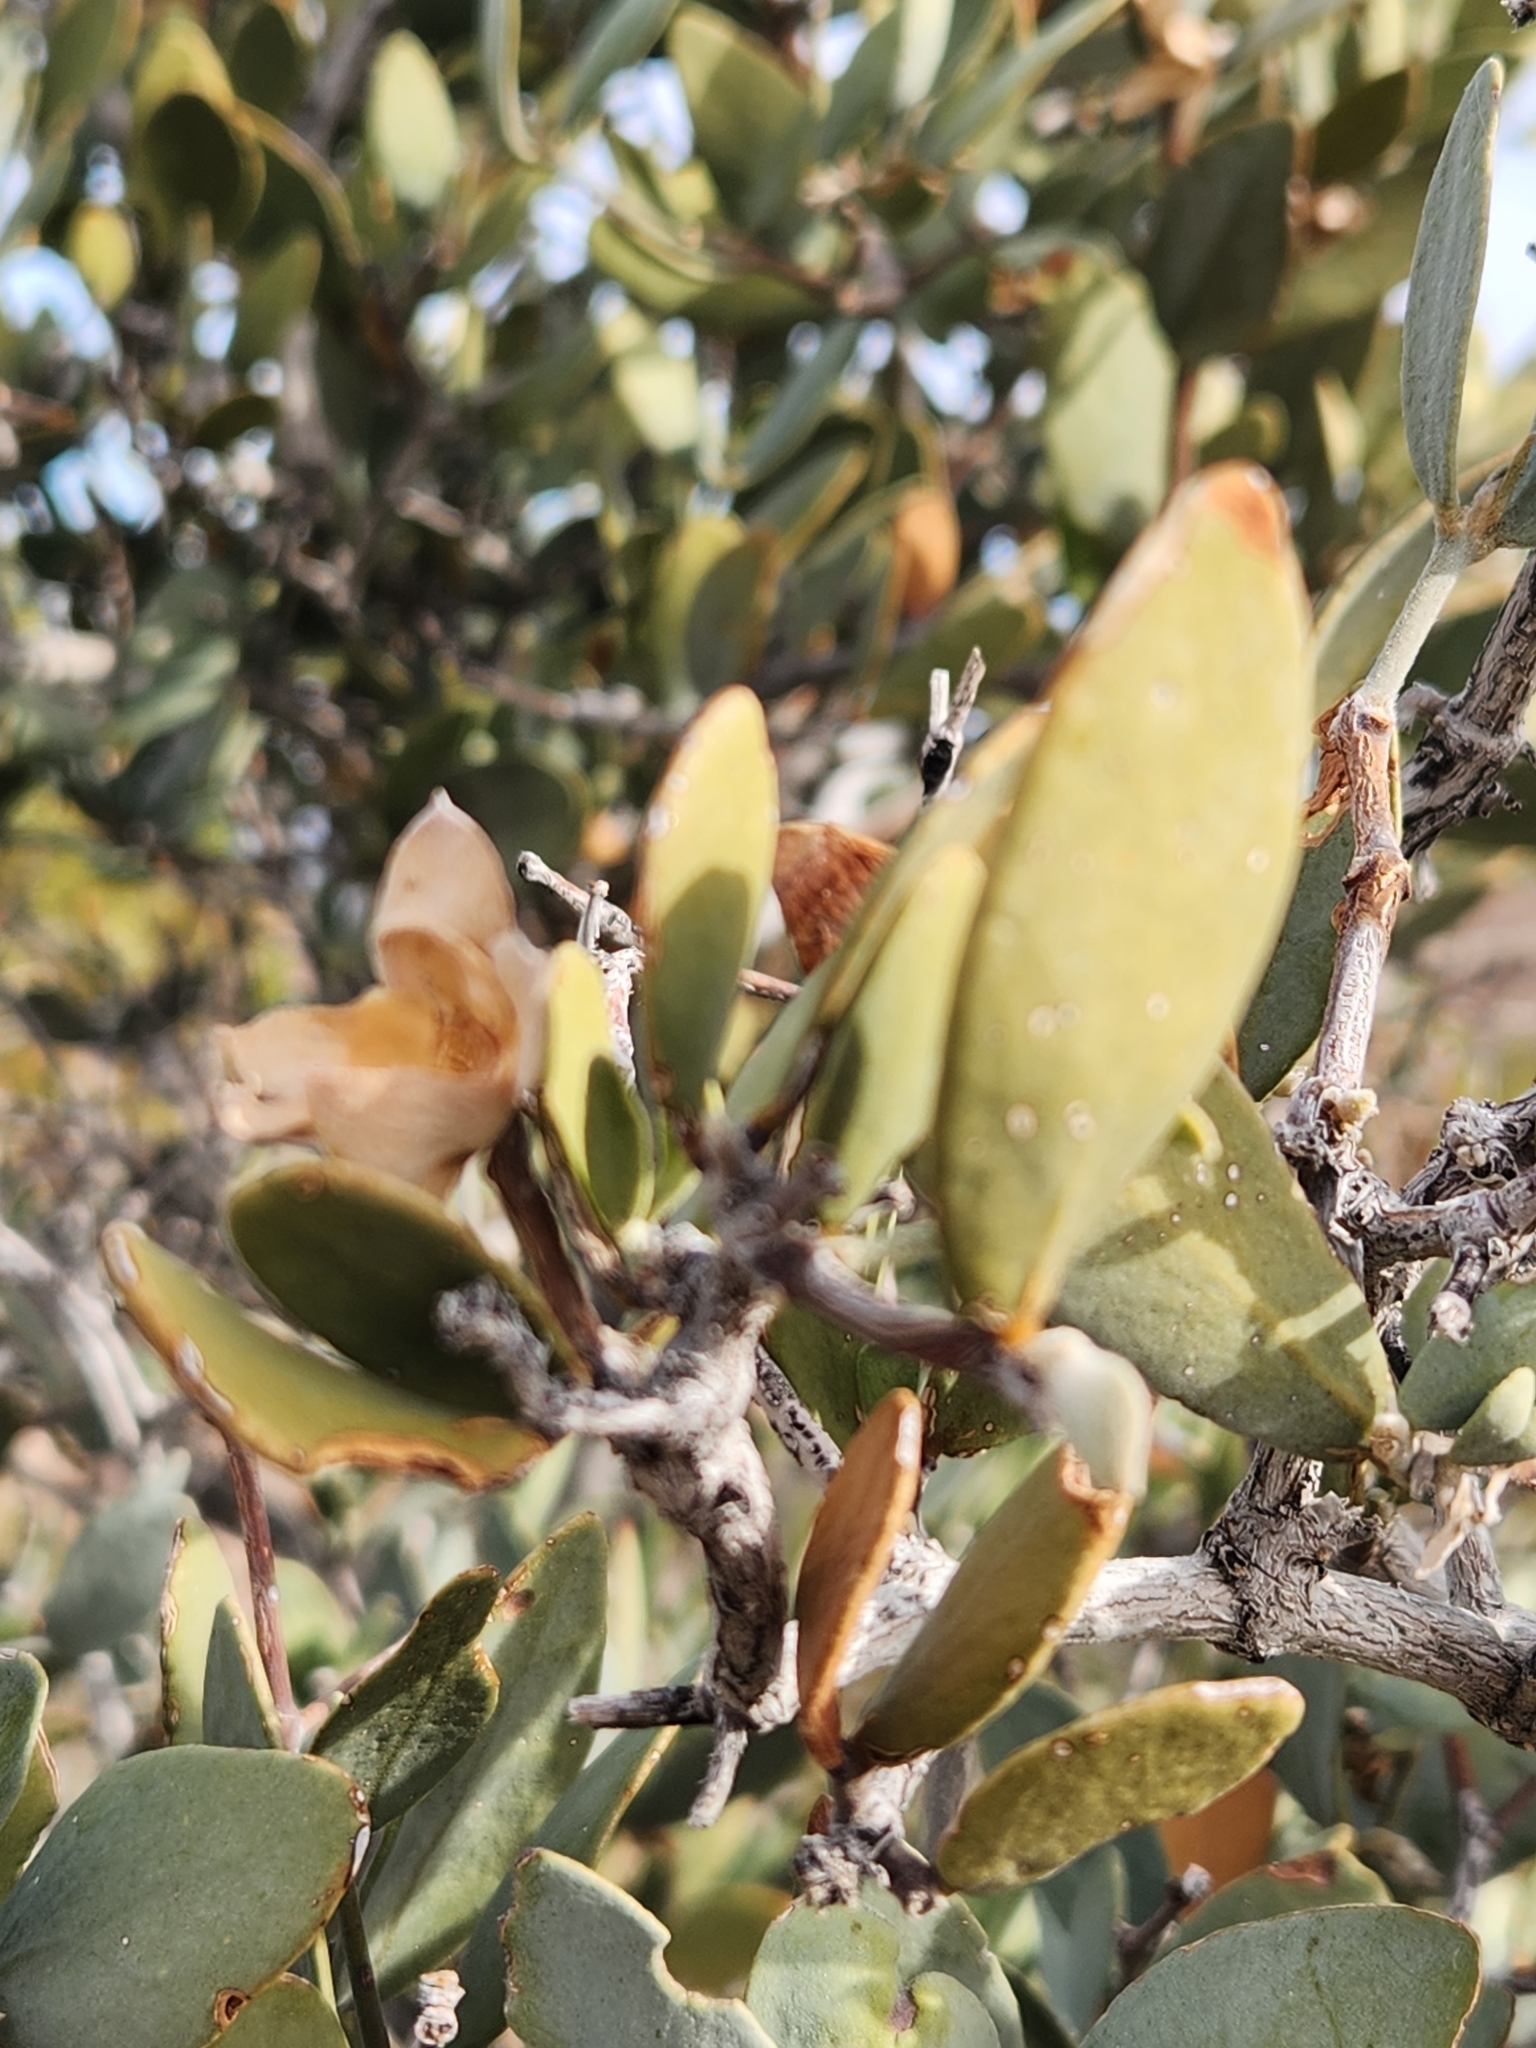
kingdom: Plantae
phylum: Tracheophyta
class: Magnoliopsida
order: Caryophyllales
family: Simmondsiaceae
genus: Simmondsia
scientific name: Simmondsia chinensis
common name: Jojoba
